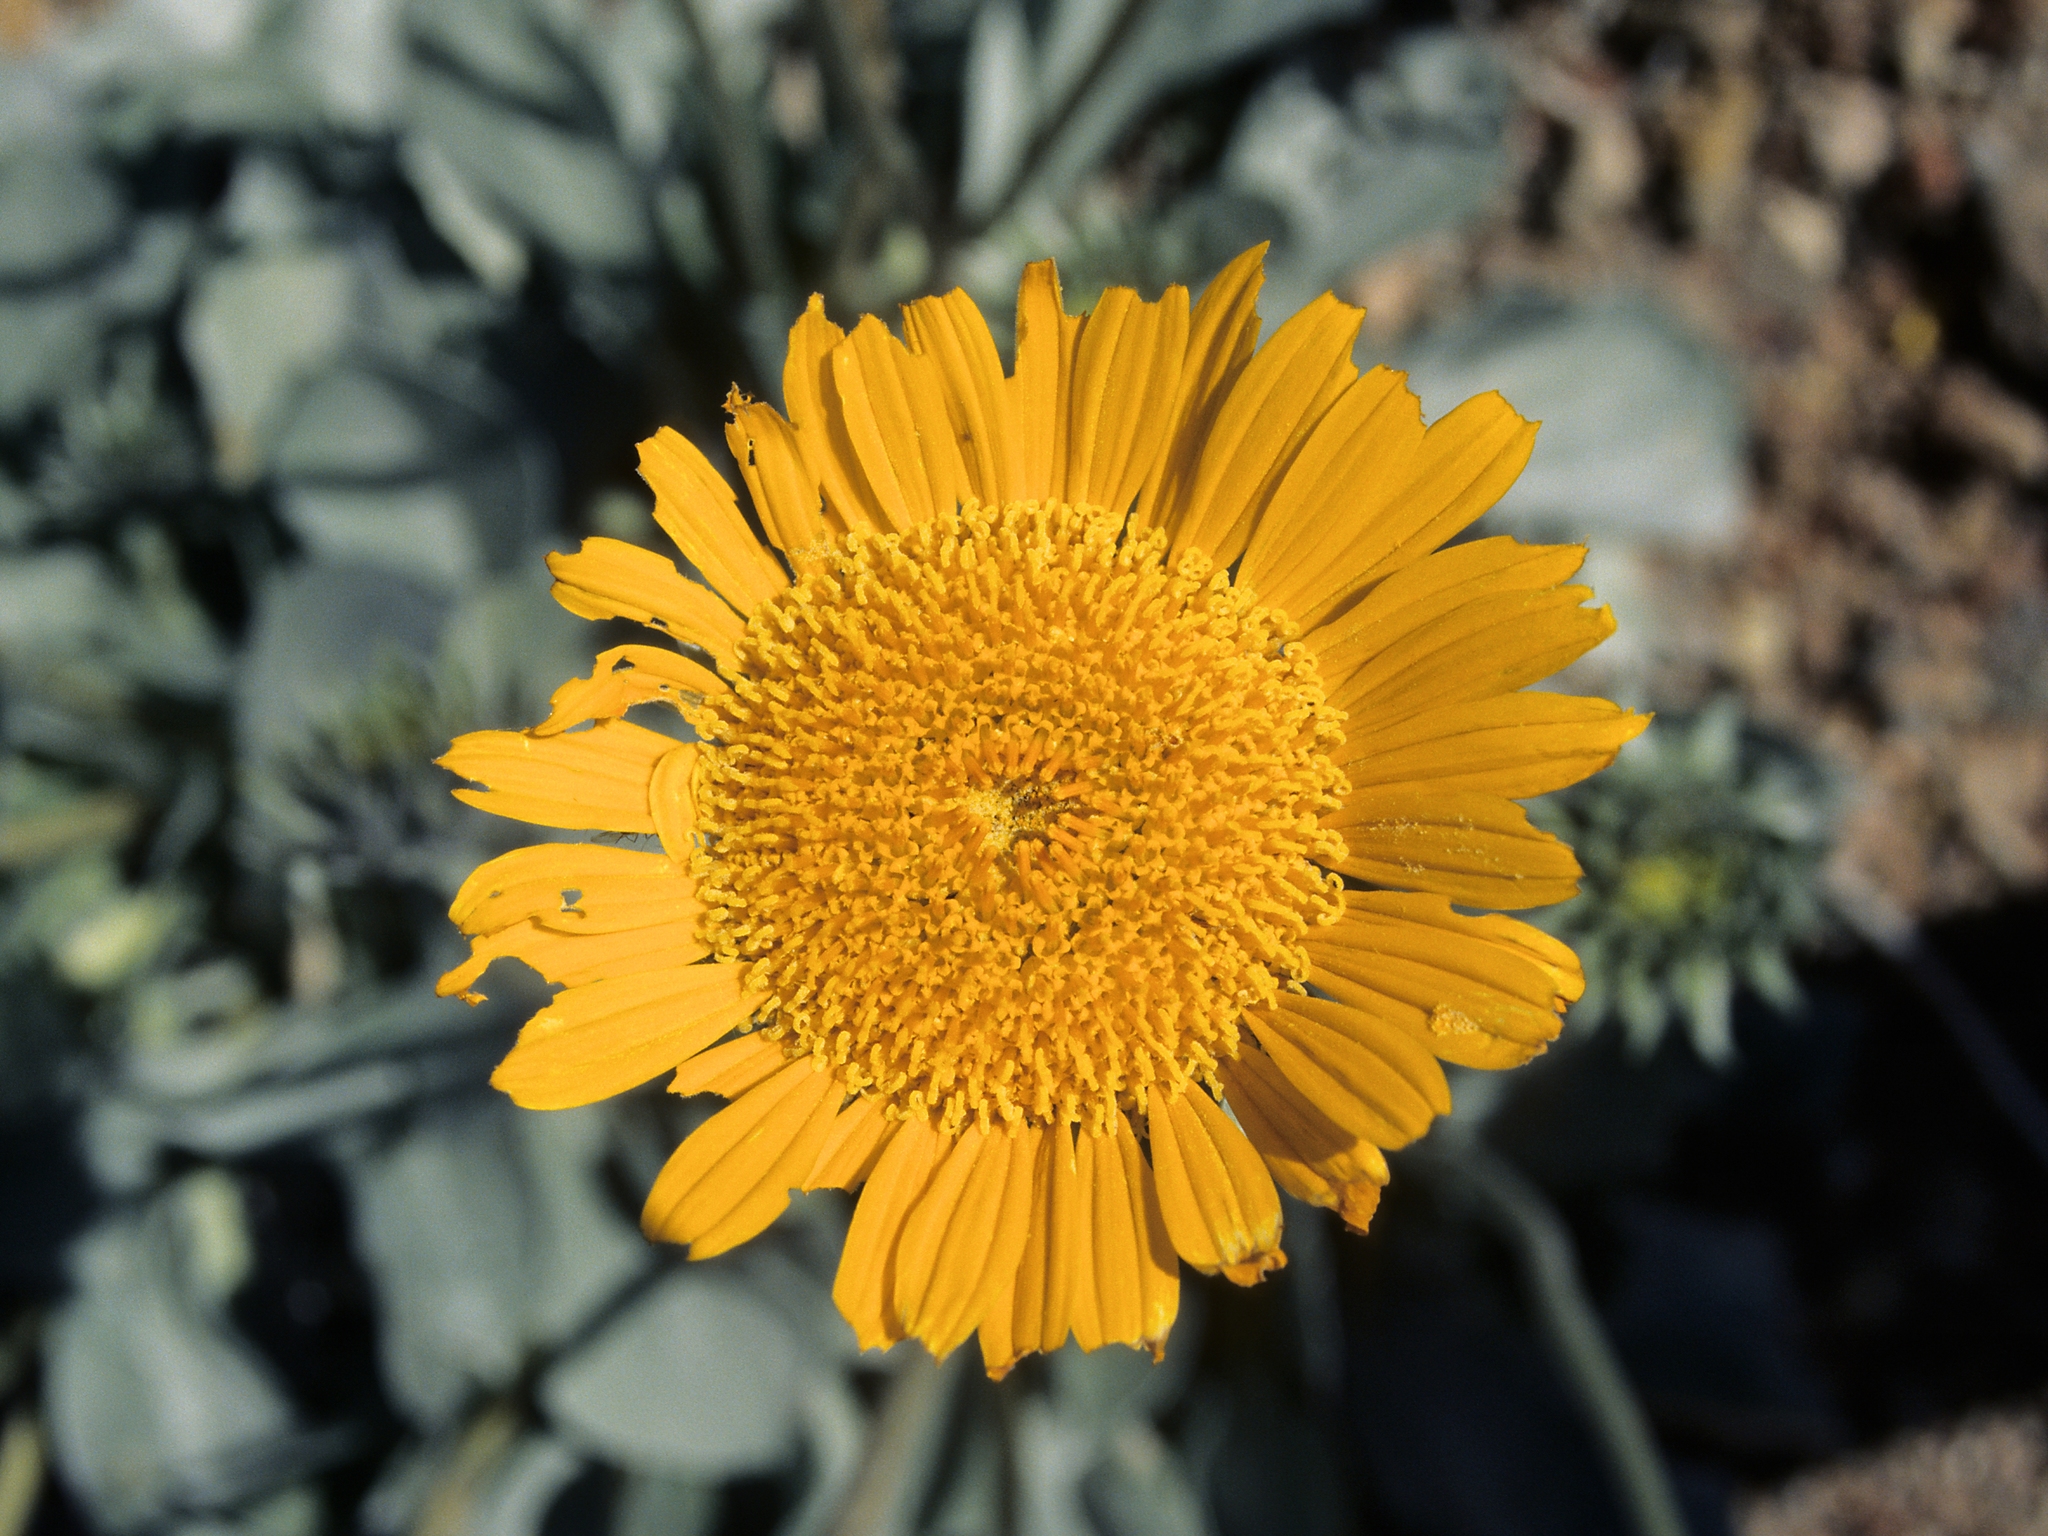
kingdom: Plantae
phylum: Tracheophyta
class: Magnoliopsida
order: Asterales
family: Asteraceae
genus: Enceliopsis
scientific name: Enceliopsis argophylla
